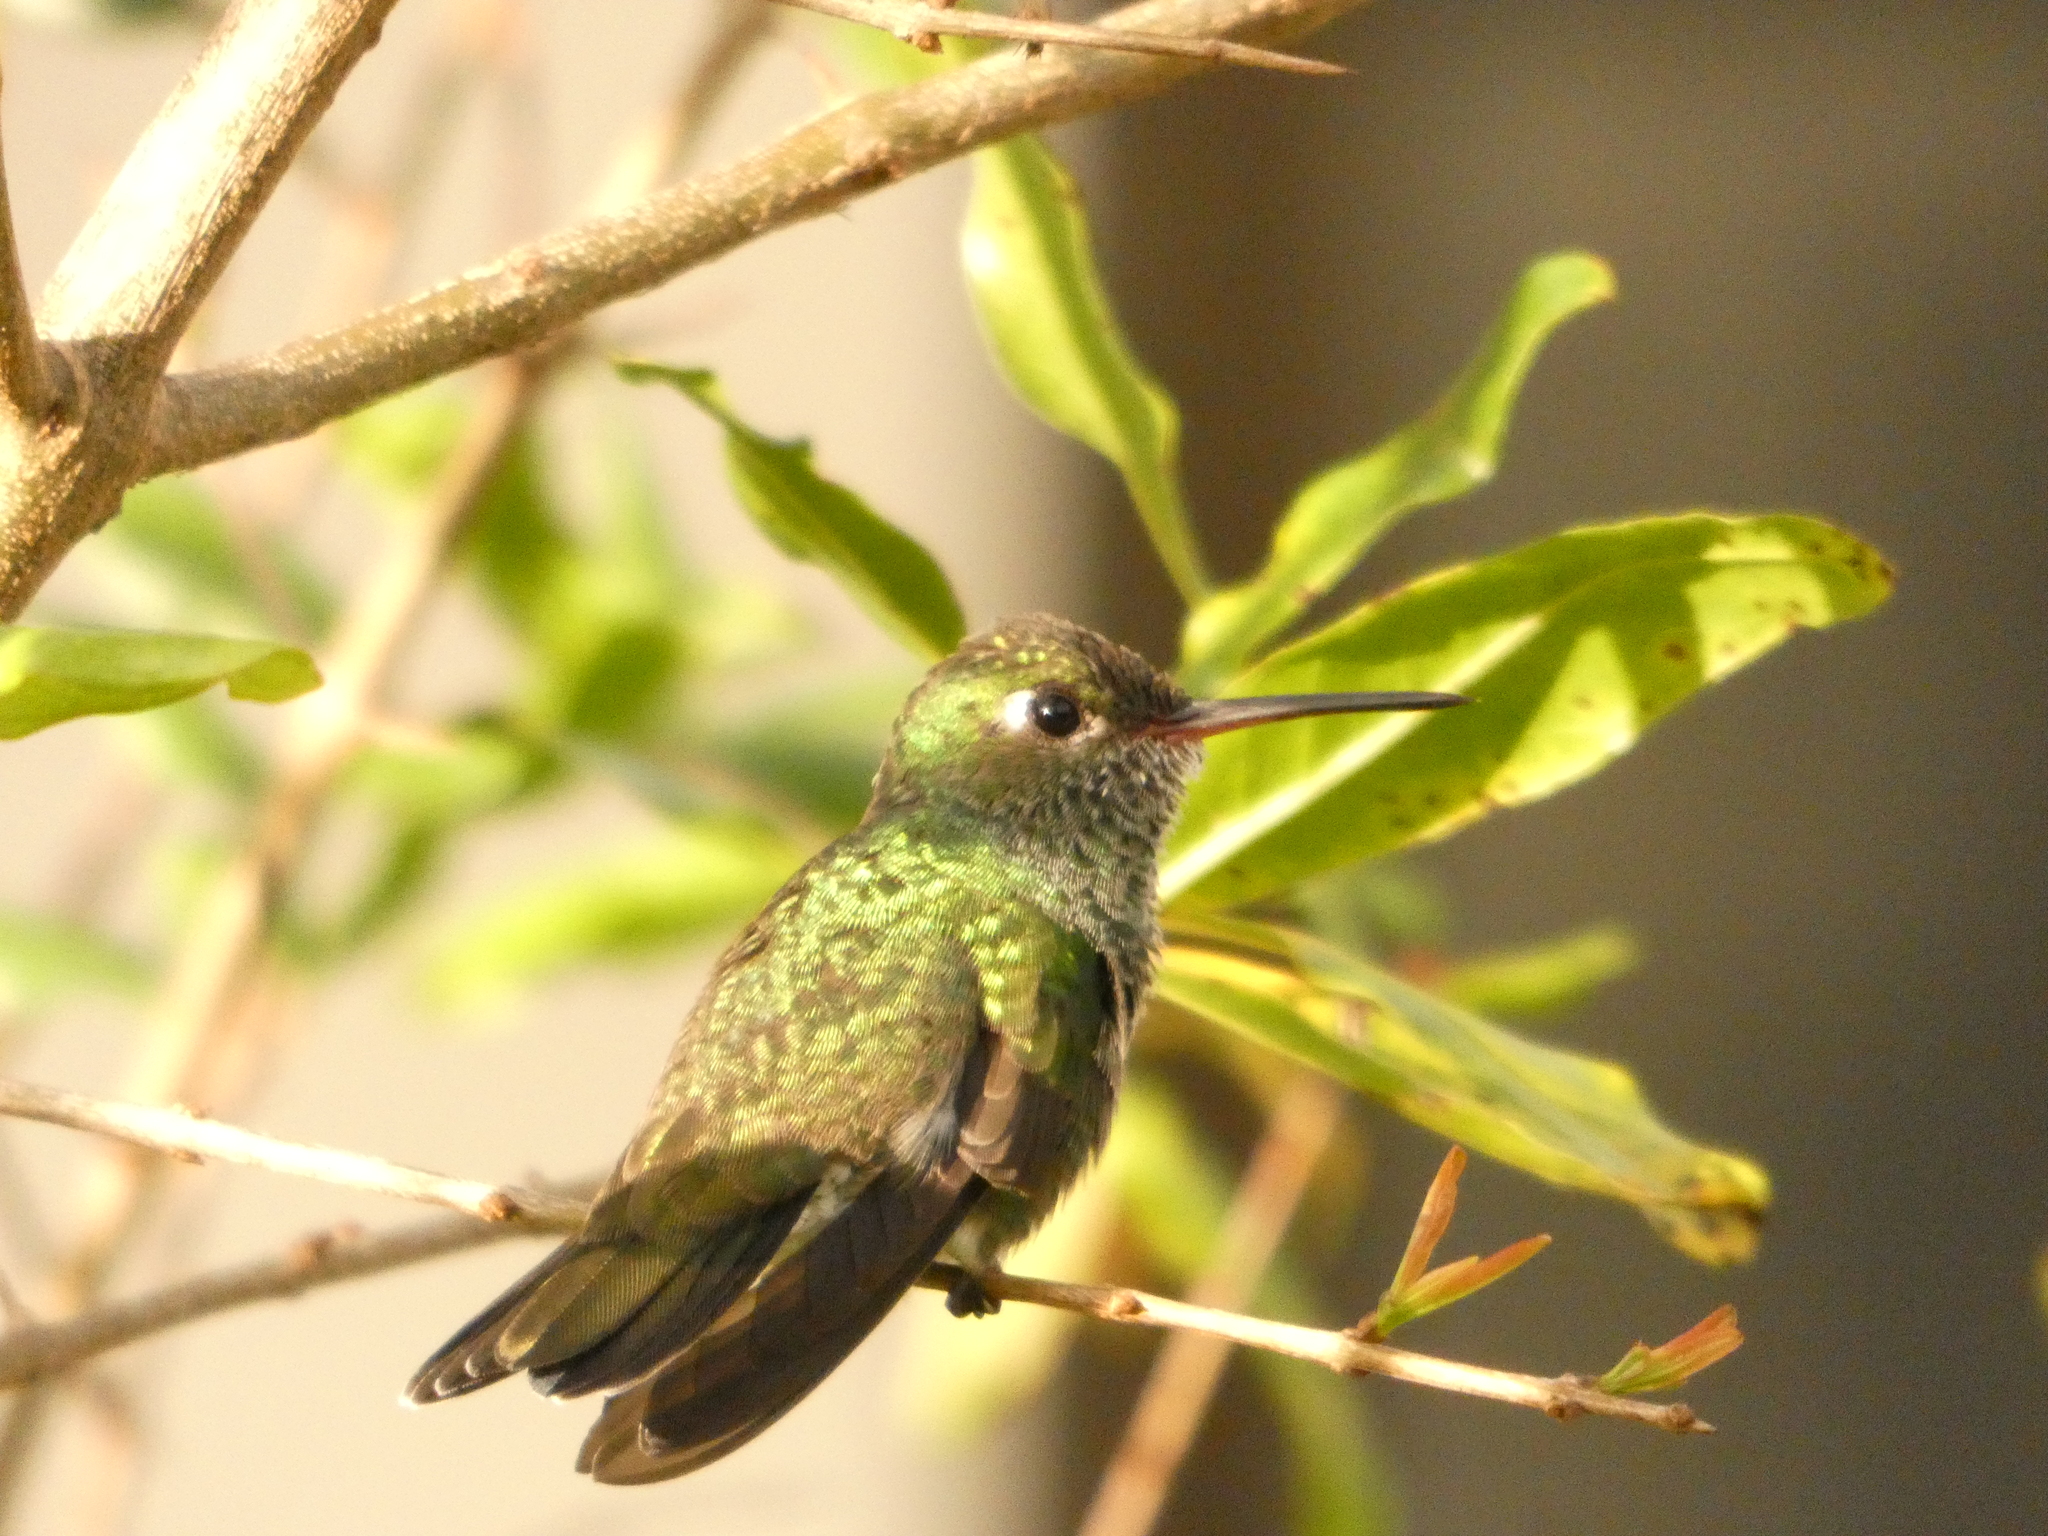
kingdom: Animalia
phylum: Chordata
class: Aves
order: Apodiformes
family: Trochilidae
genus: Chionomesa
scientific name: Chionomesa fimbriata
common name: Glittering-throated emerald
